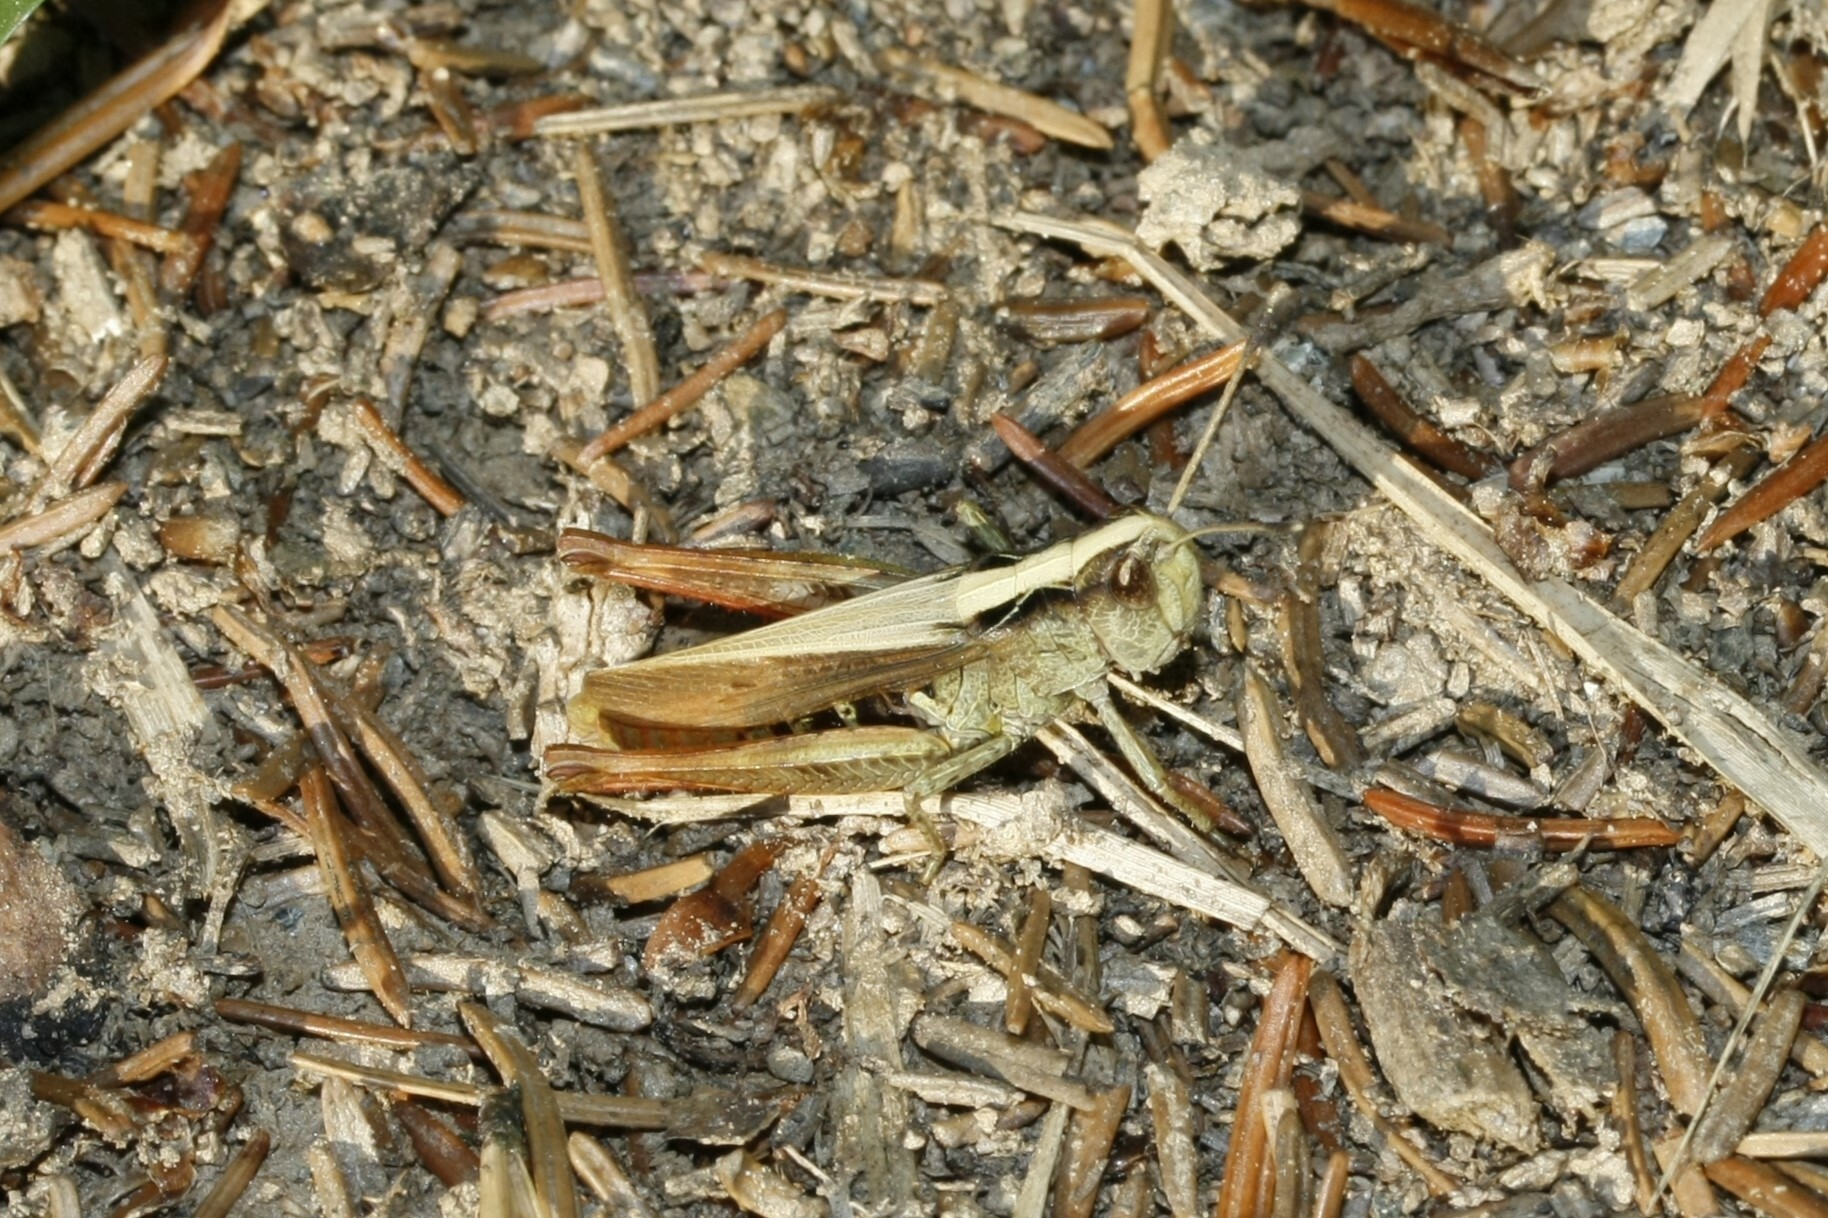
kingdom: Animalia
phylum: Arthropoda
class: Insecta
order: Orthoptera
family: Acrididae
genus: Gomphocerippus
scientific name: Gomphocerippus rufus
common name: Rufous grasshopper
